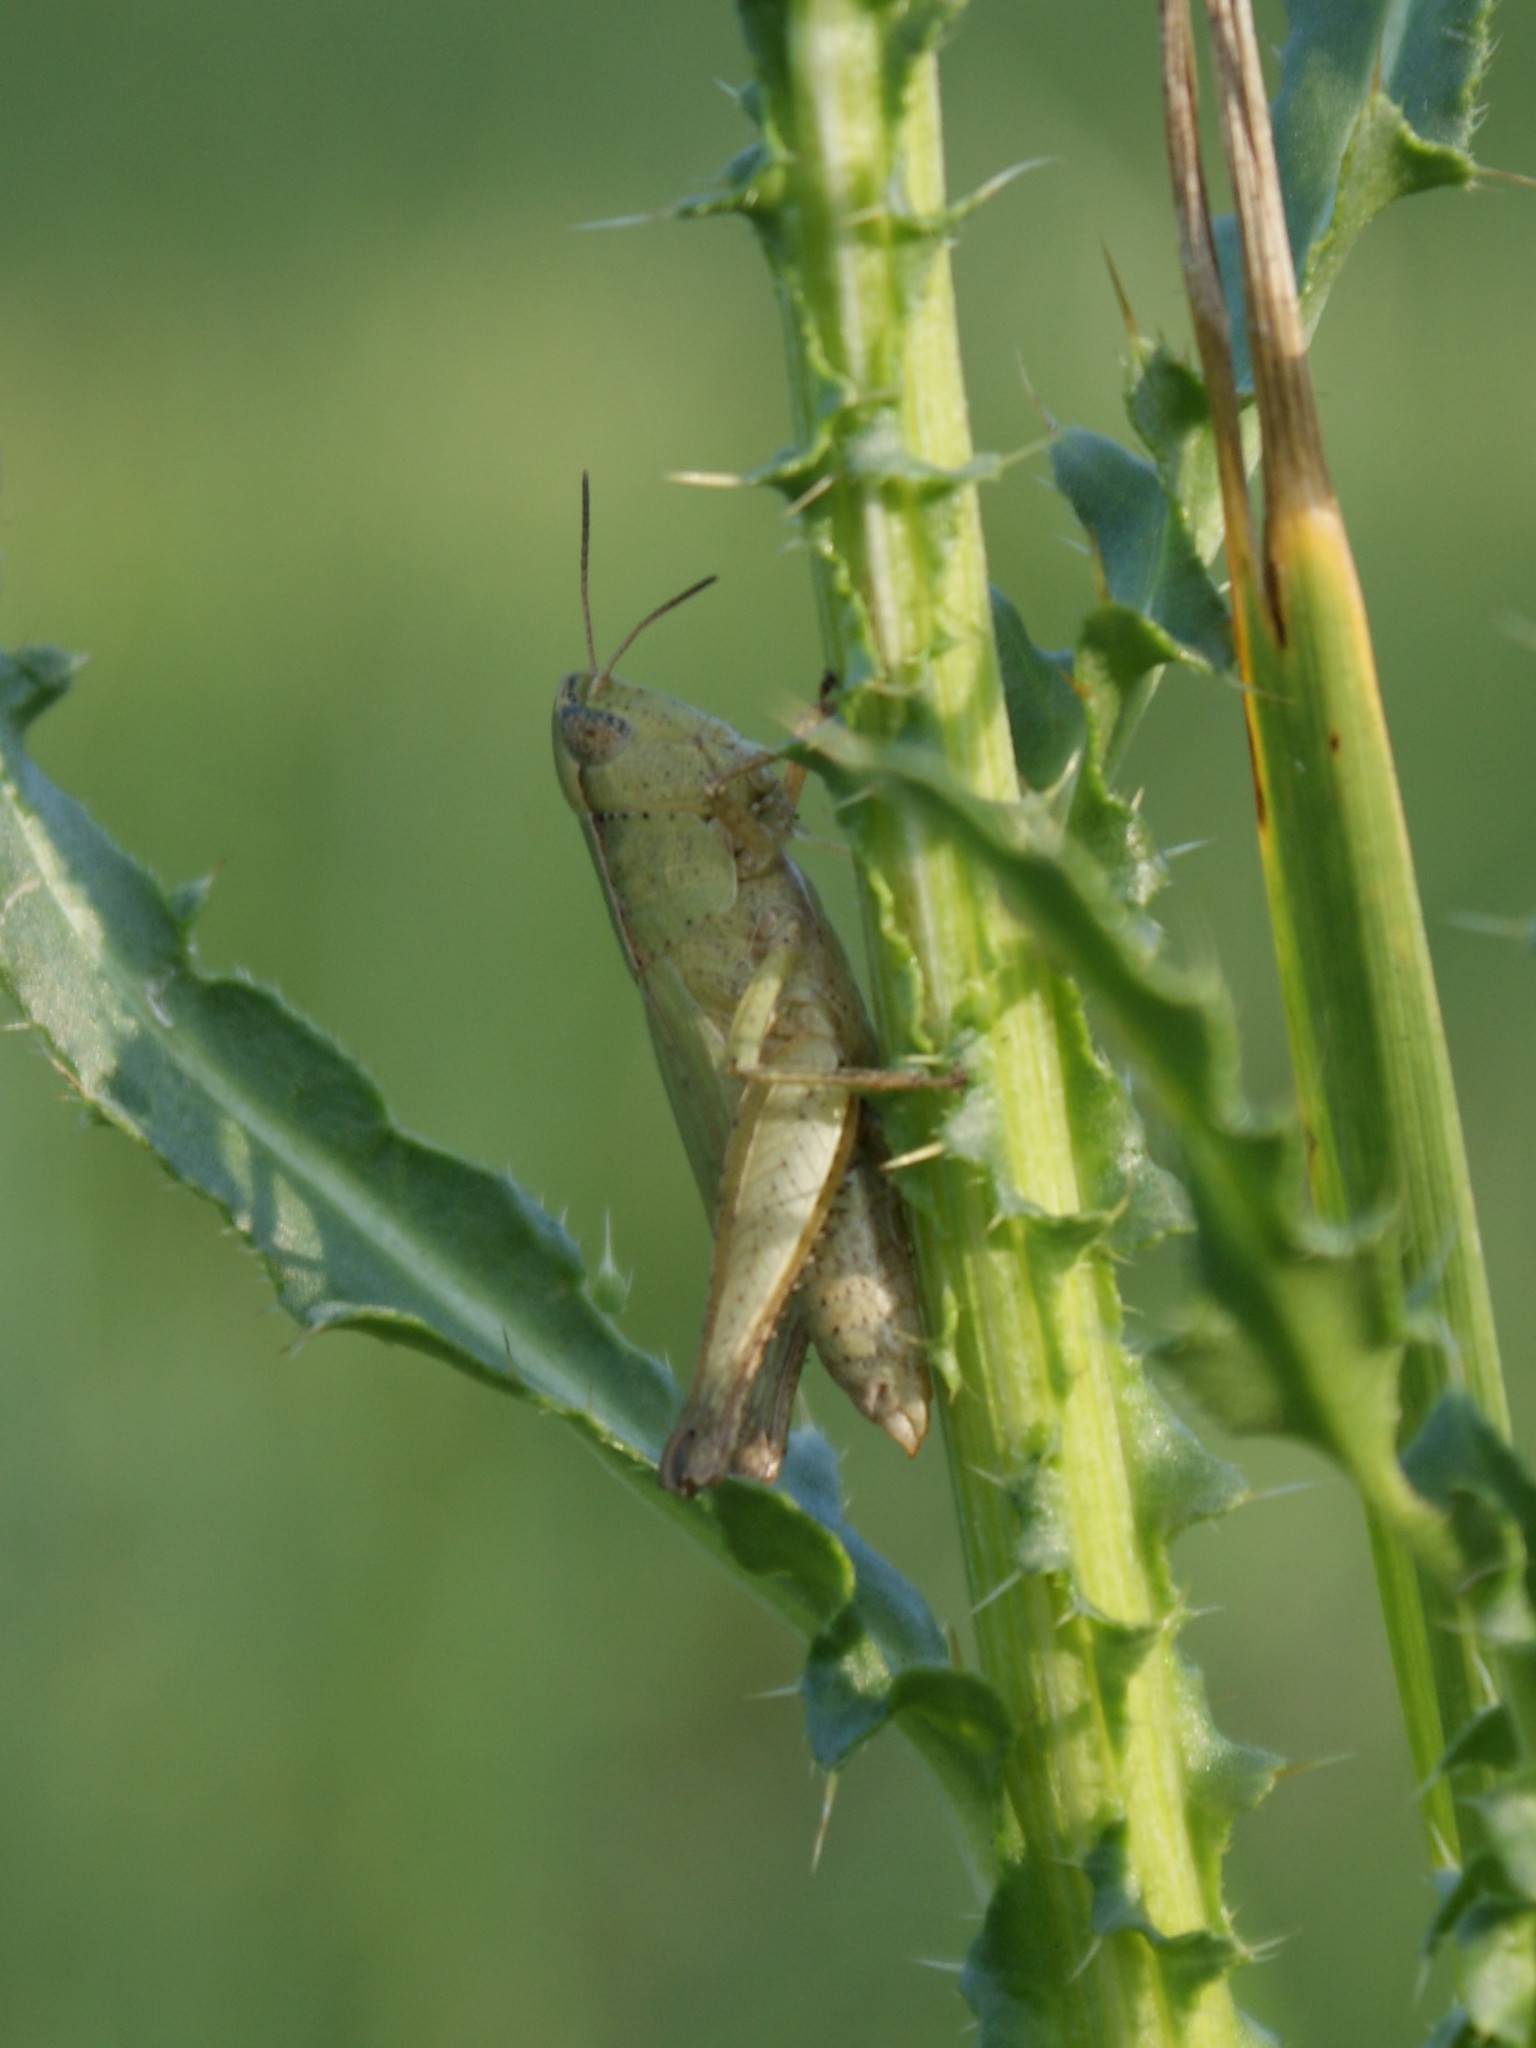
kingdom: Animalia
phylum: Arthropoda
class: Insecta
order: Orthoptera
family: Acrididae
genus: Dichromorpha
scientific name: Dichromorpha viridis
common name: Short-winged green grasshopper
